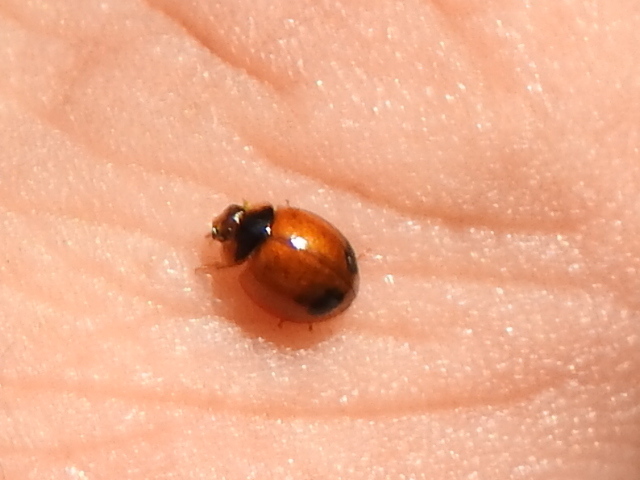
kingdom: Animalia
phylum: Arthropoda
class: Insecta
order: Coleoptera
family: Coccinellidae
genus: Exochomus
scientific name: Exochomus childreni
